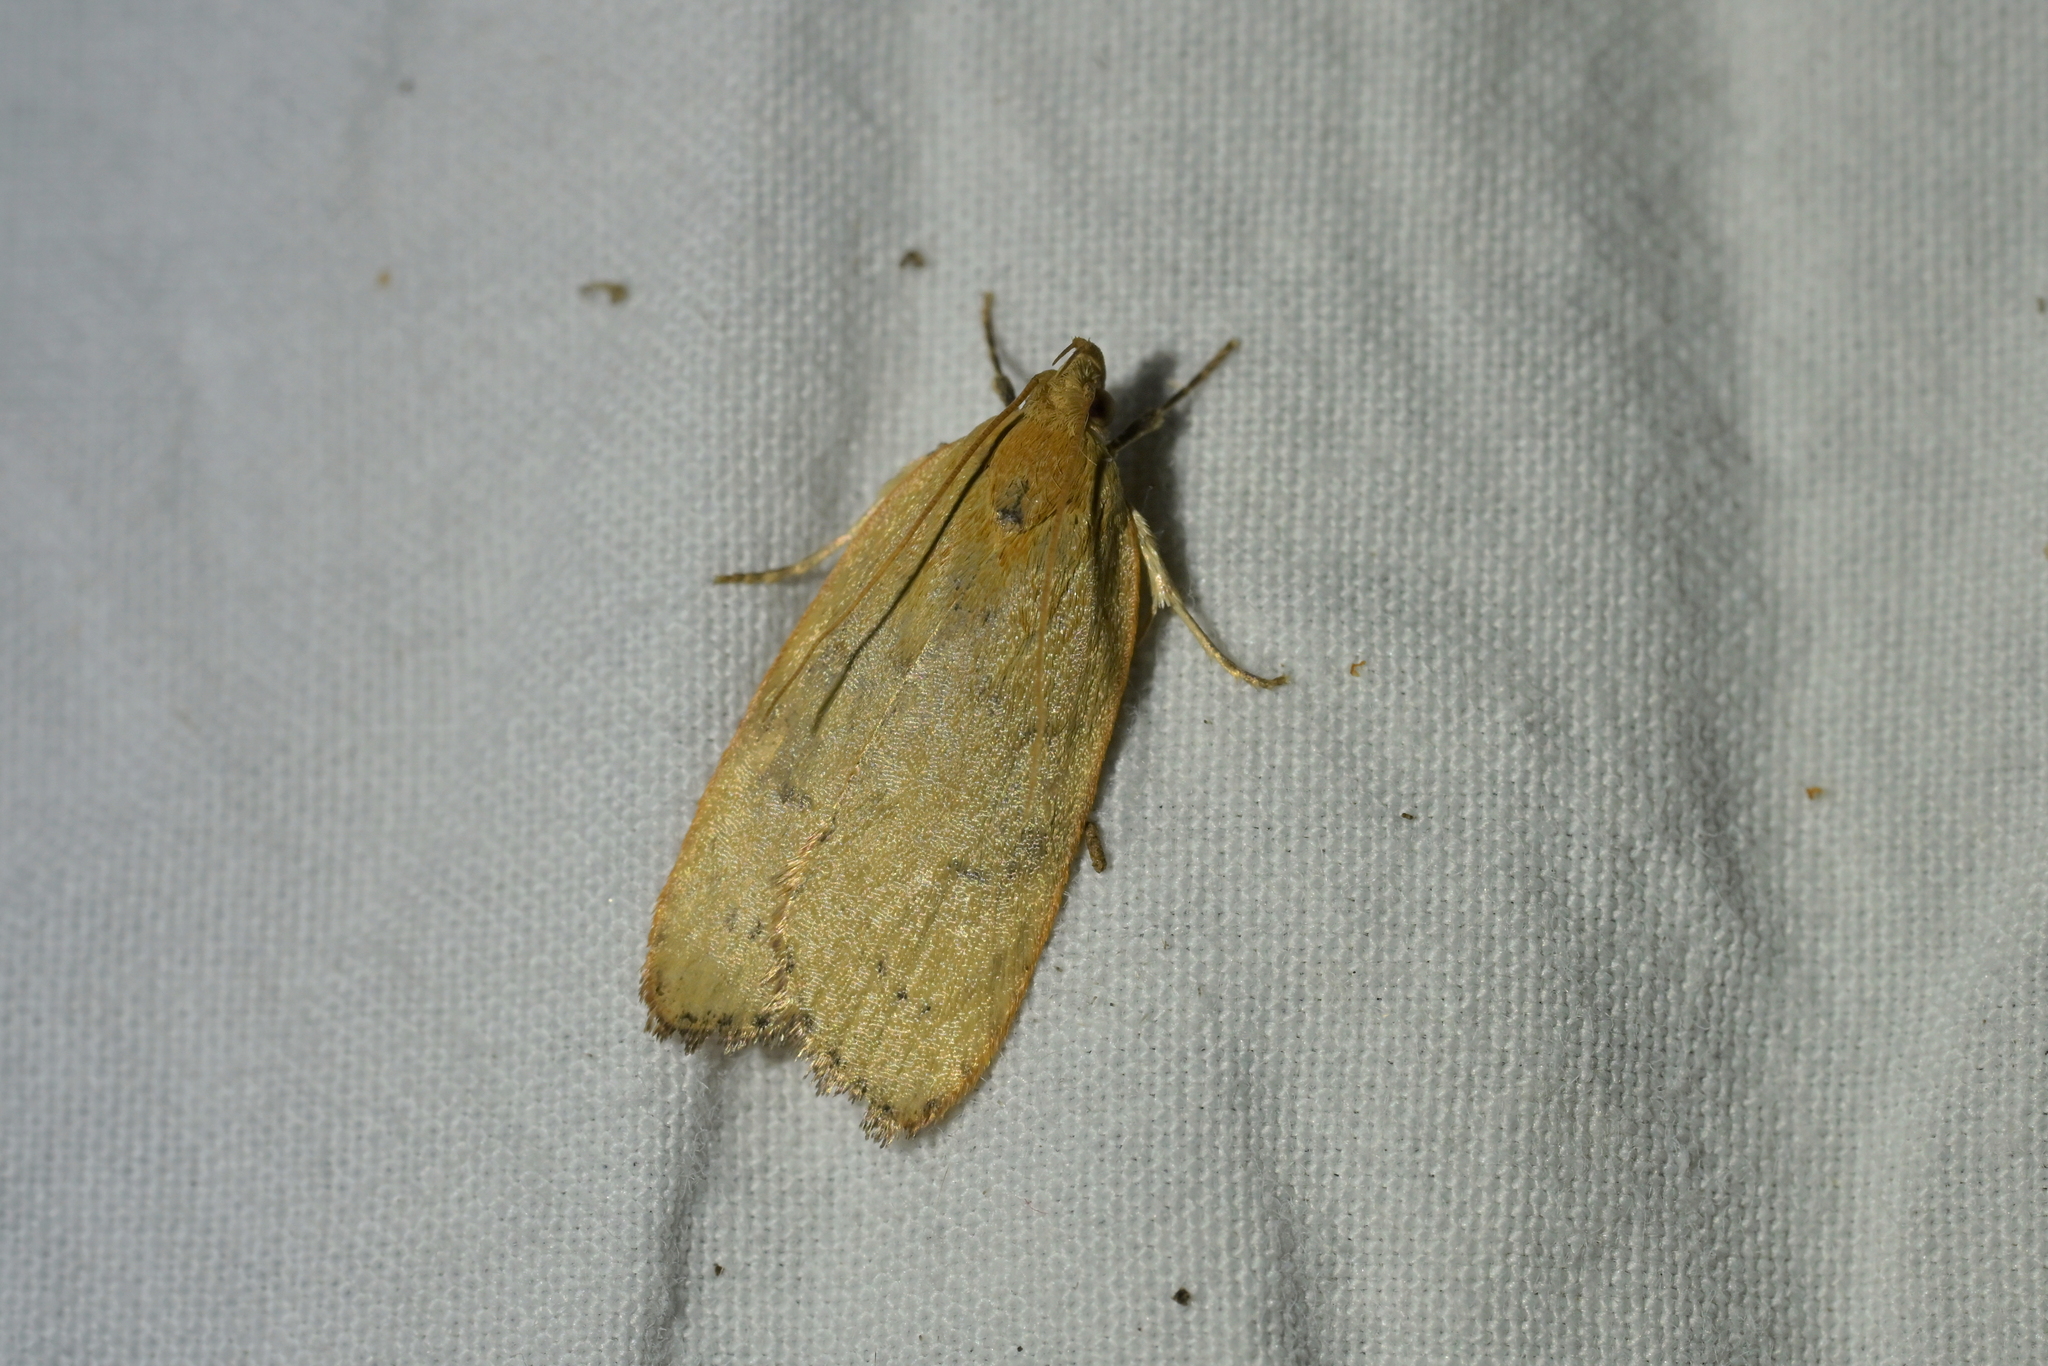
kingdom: Animalia
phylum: Arthropoda
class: Insecta
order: Lepidoptera
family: Depressariidae
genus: Phaeosaces
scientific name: Phaeosaces coarctatella
